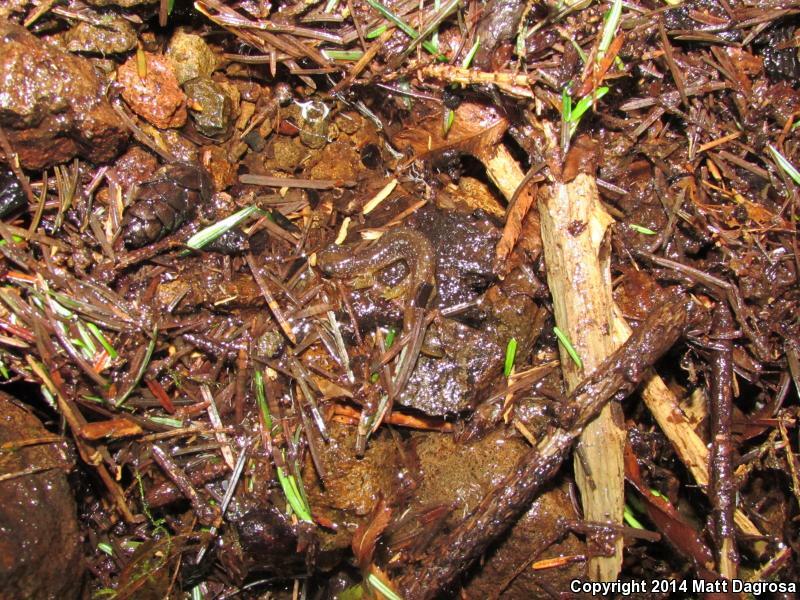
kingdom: Animalia
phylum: Chordata
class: Amphibia
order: Caudata
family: Rhyacotritonidae
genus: Rhyacotriton
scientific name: Rhyacotriton kezeri
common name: Columbia torrent salamander
